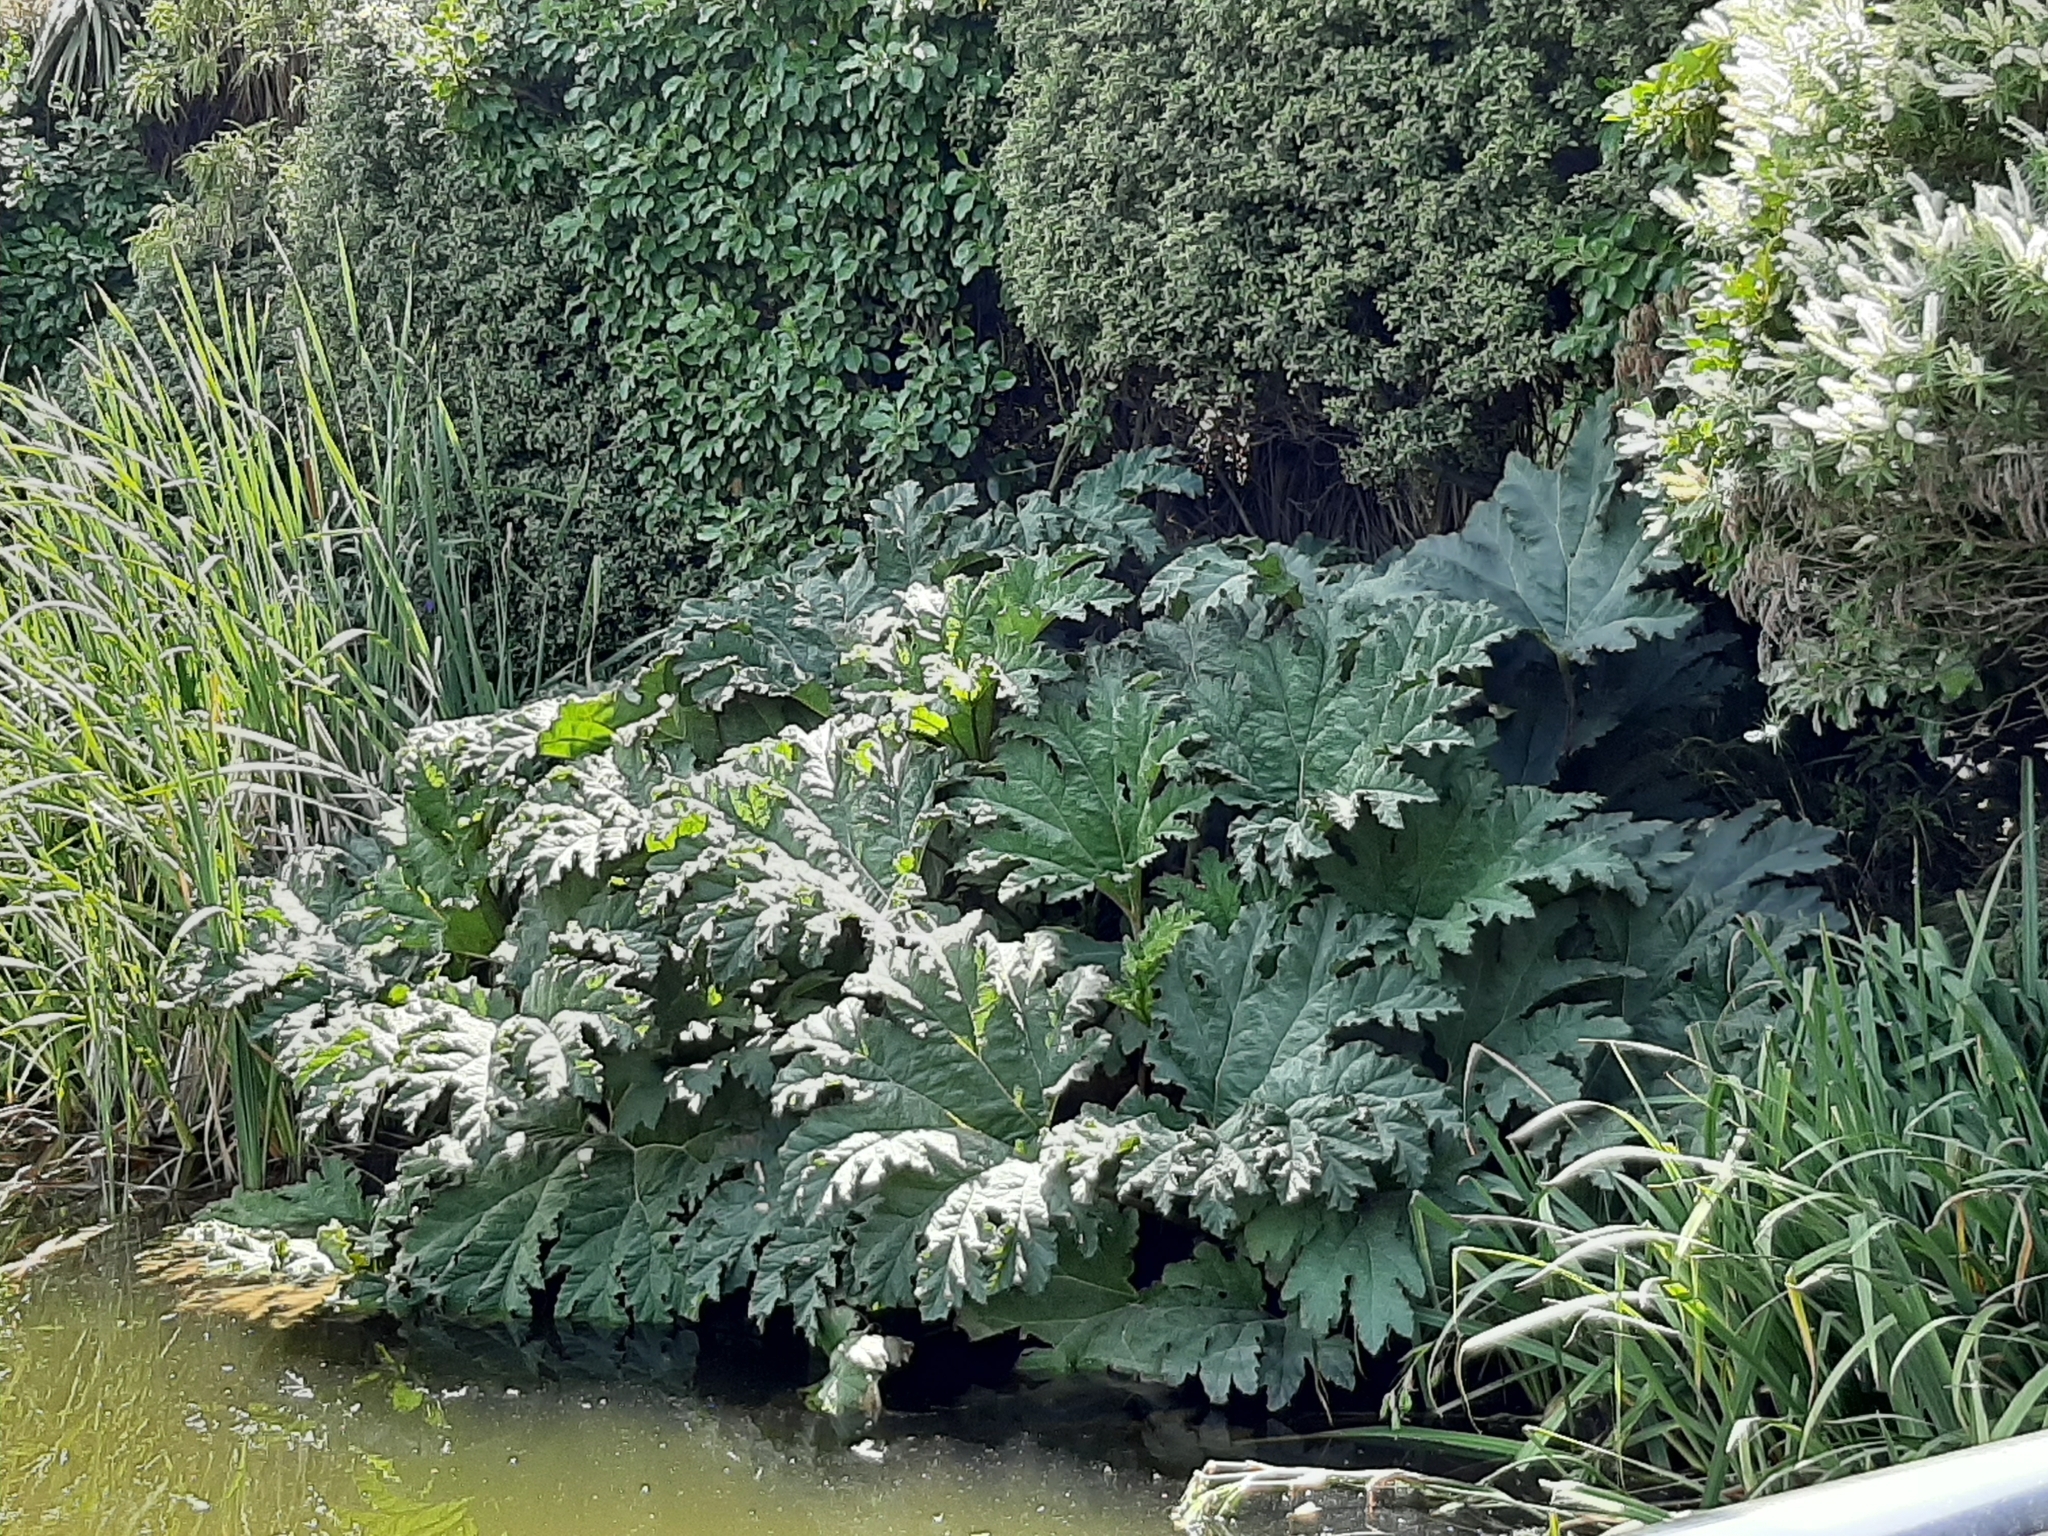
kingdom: Plantae
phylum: Tracheophyta
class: Magnoliopsida
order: Gunnerales
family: Gunneraceae
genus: Gunnera
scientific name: Gunnera tinctoria
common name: Giant-rhubarb
